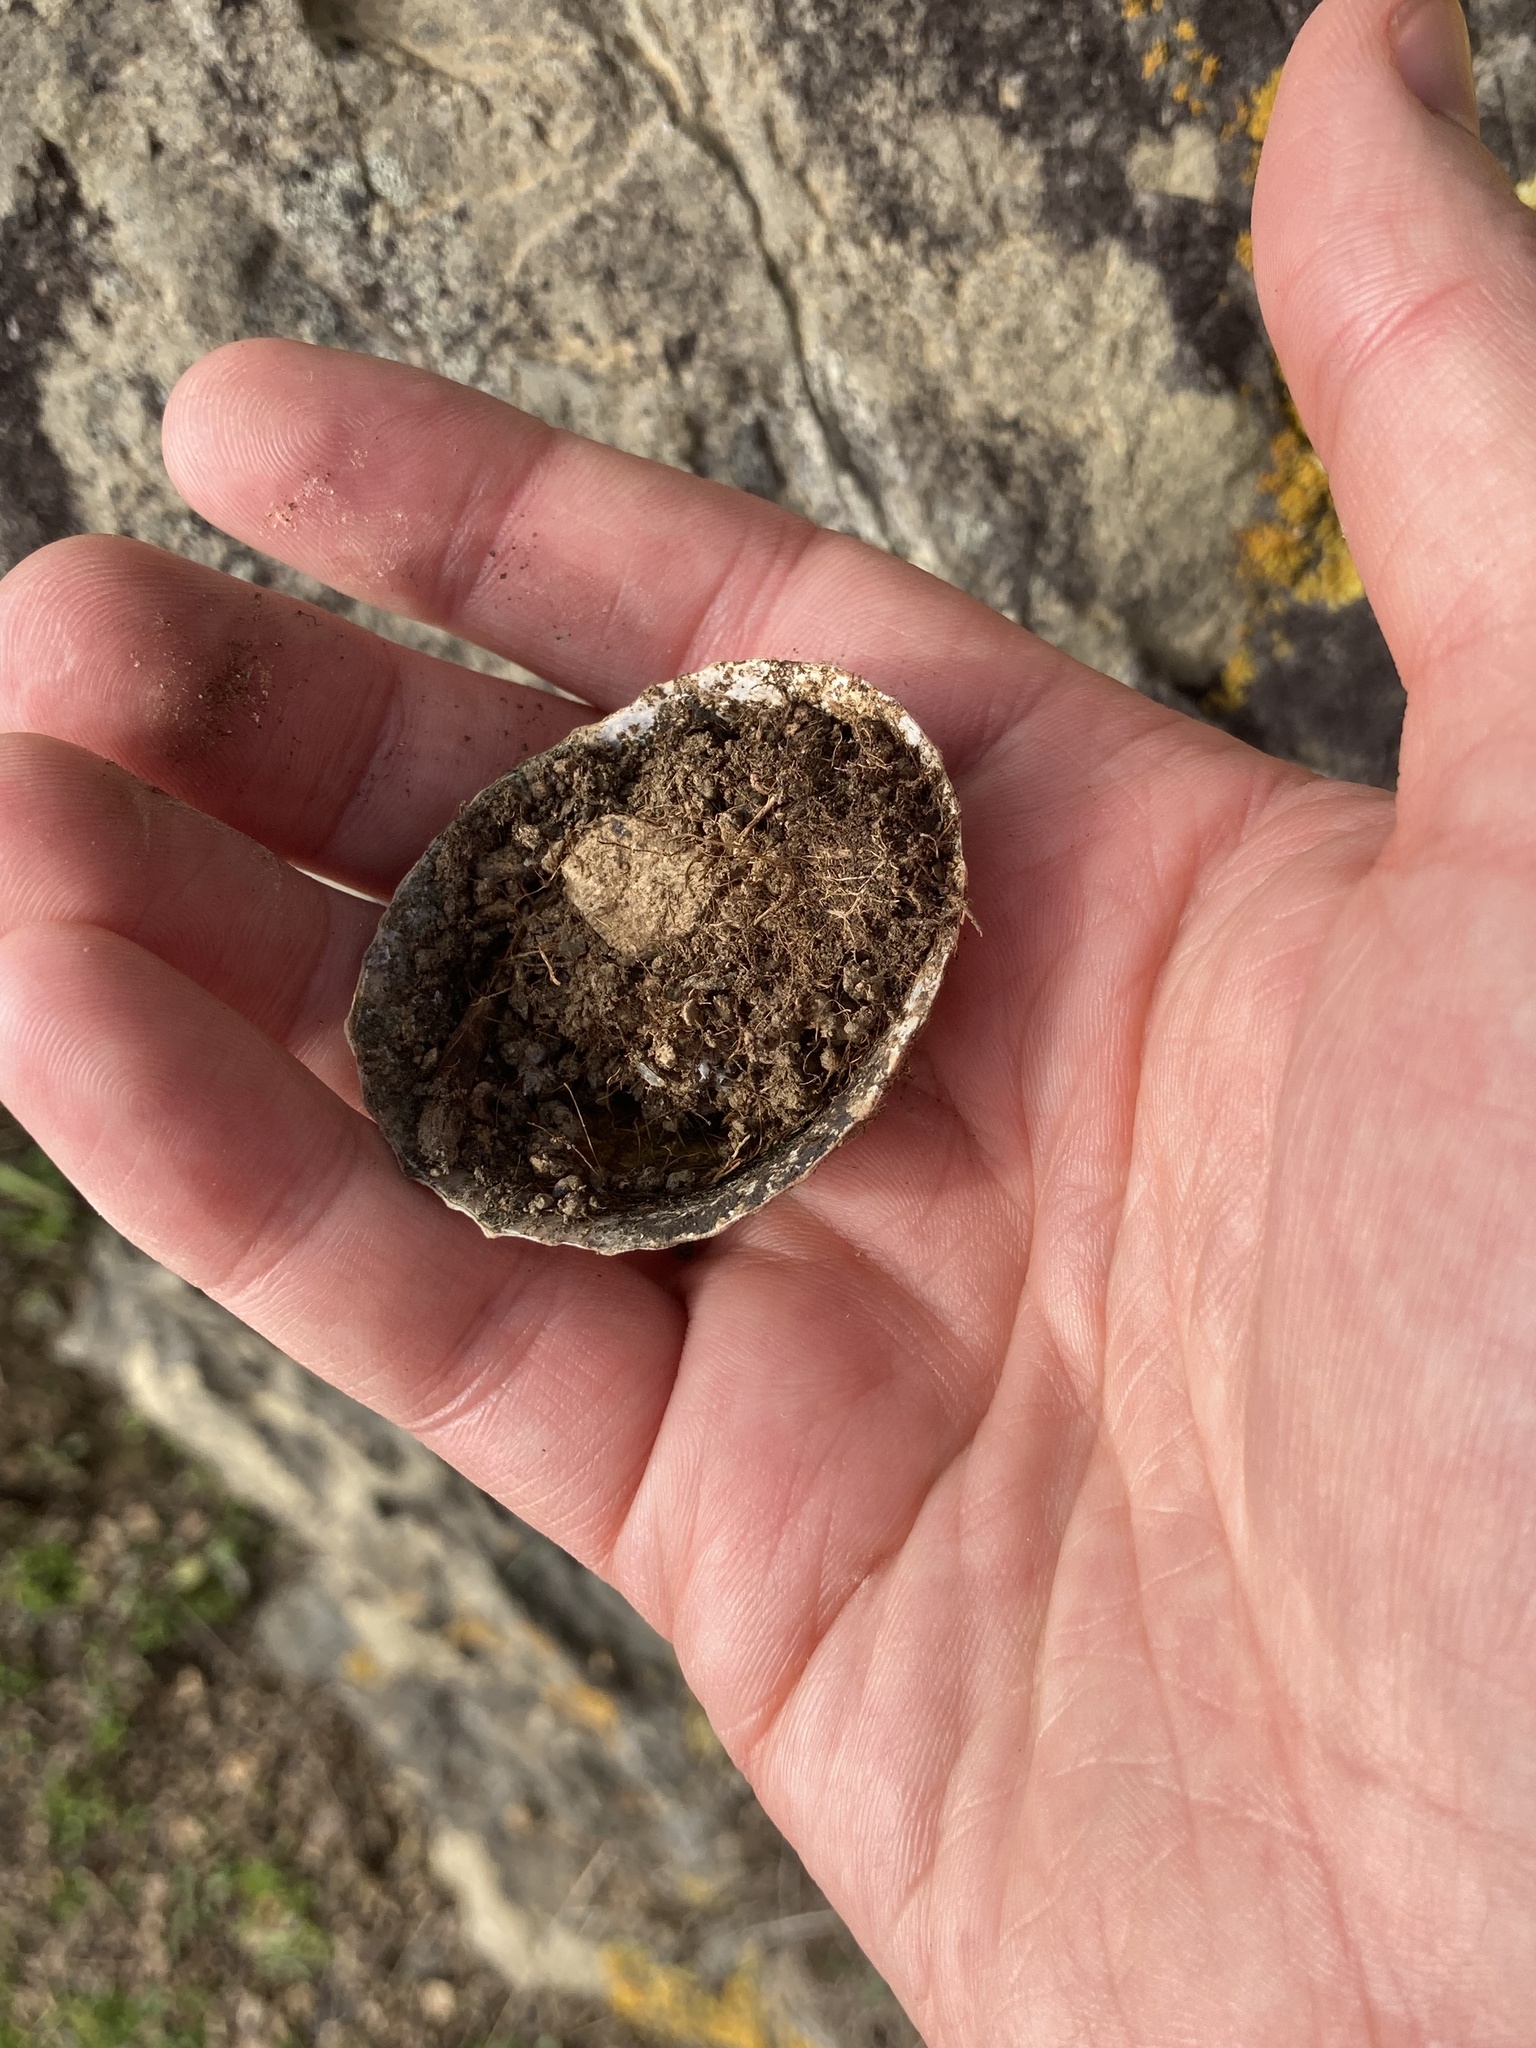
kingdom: Animalia
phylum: Mollusca
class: Gastropoda
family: Nacellidae
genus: Cellana
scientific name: Cellana radians
